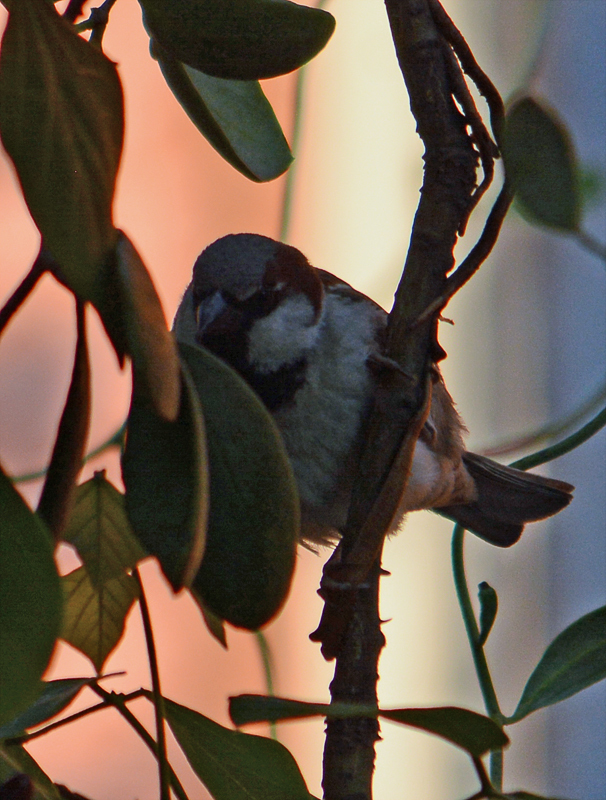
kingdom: Animalia
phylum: Chordata
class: Aves
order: Passeriformes
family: Passeridae
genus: Passer
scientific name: Passer domesticus
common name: House sparrow
